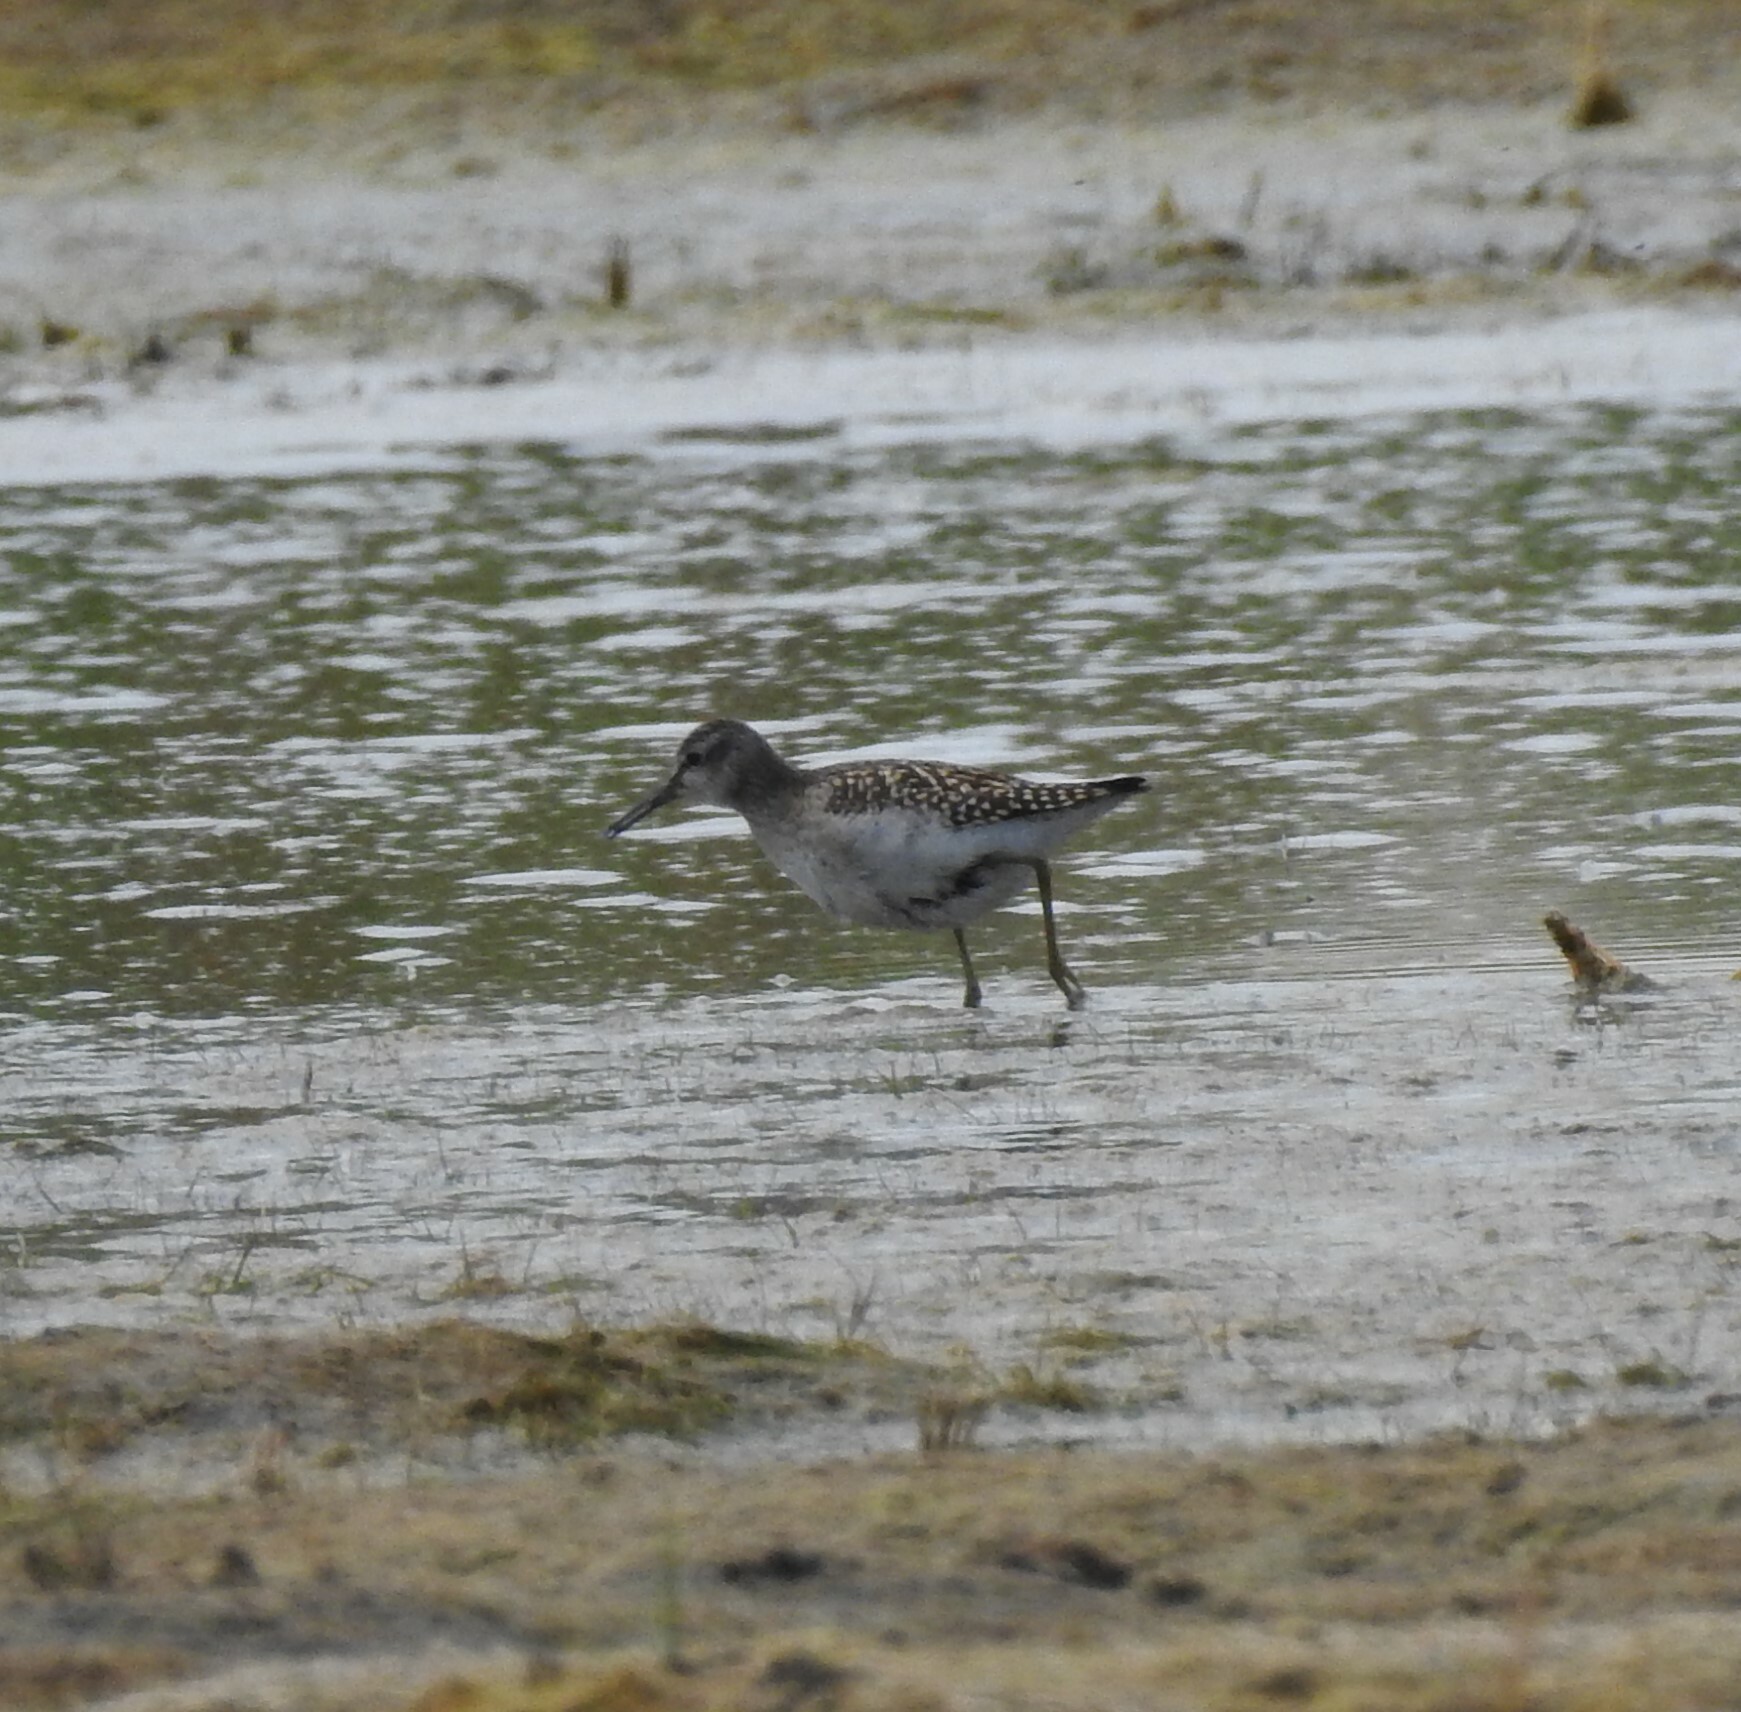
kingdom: Animalia
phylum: Chordata
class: Aves
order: Charadriiformes
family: Scolopacidae
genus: Tringa
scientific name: Tringa glareola
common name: Wood sandpiper
